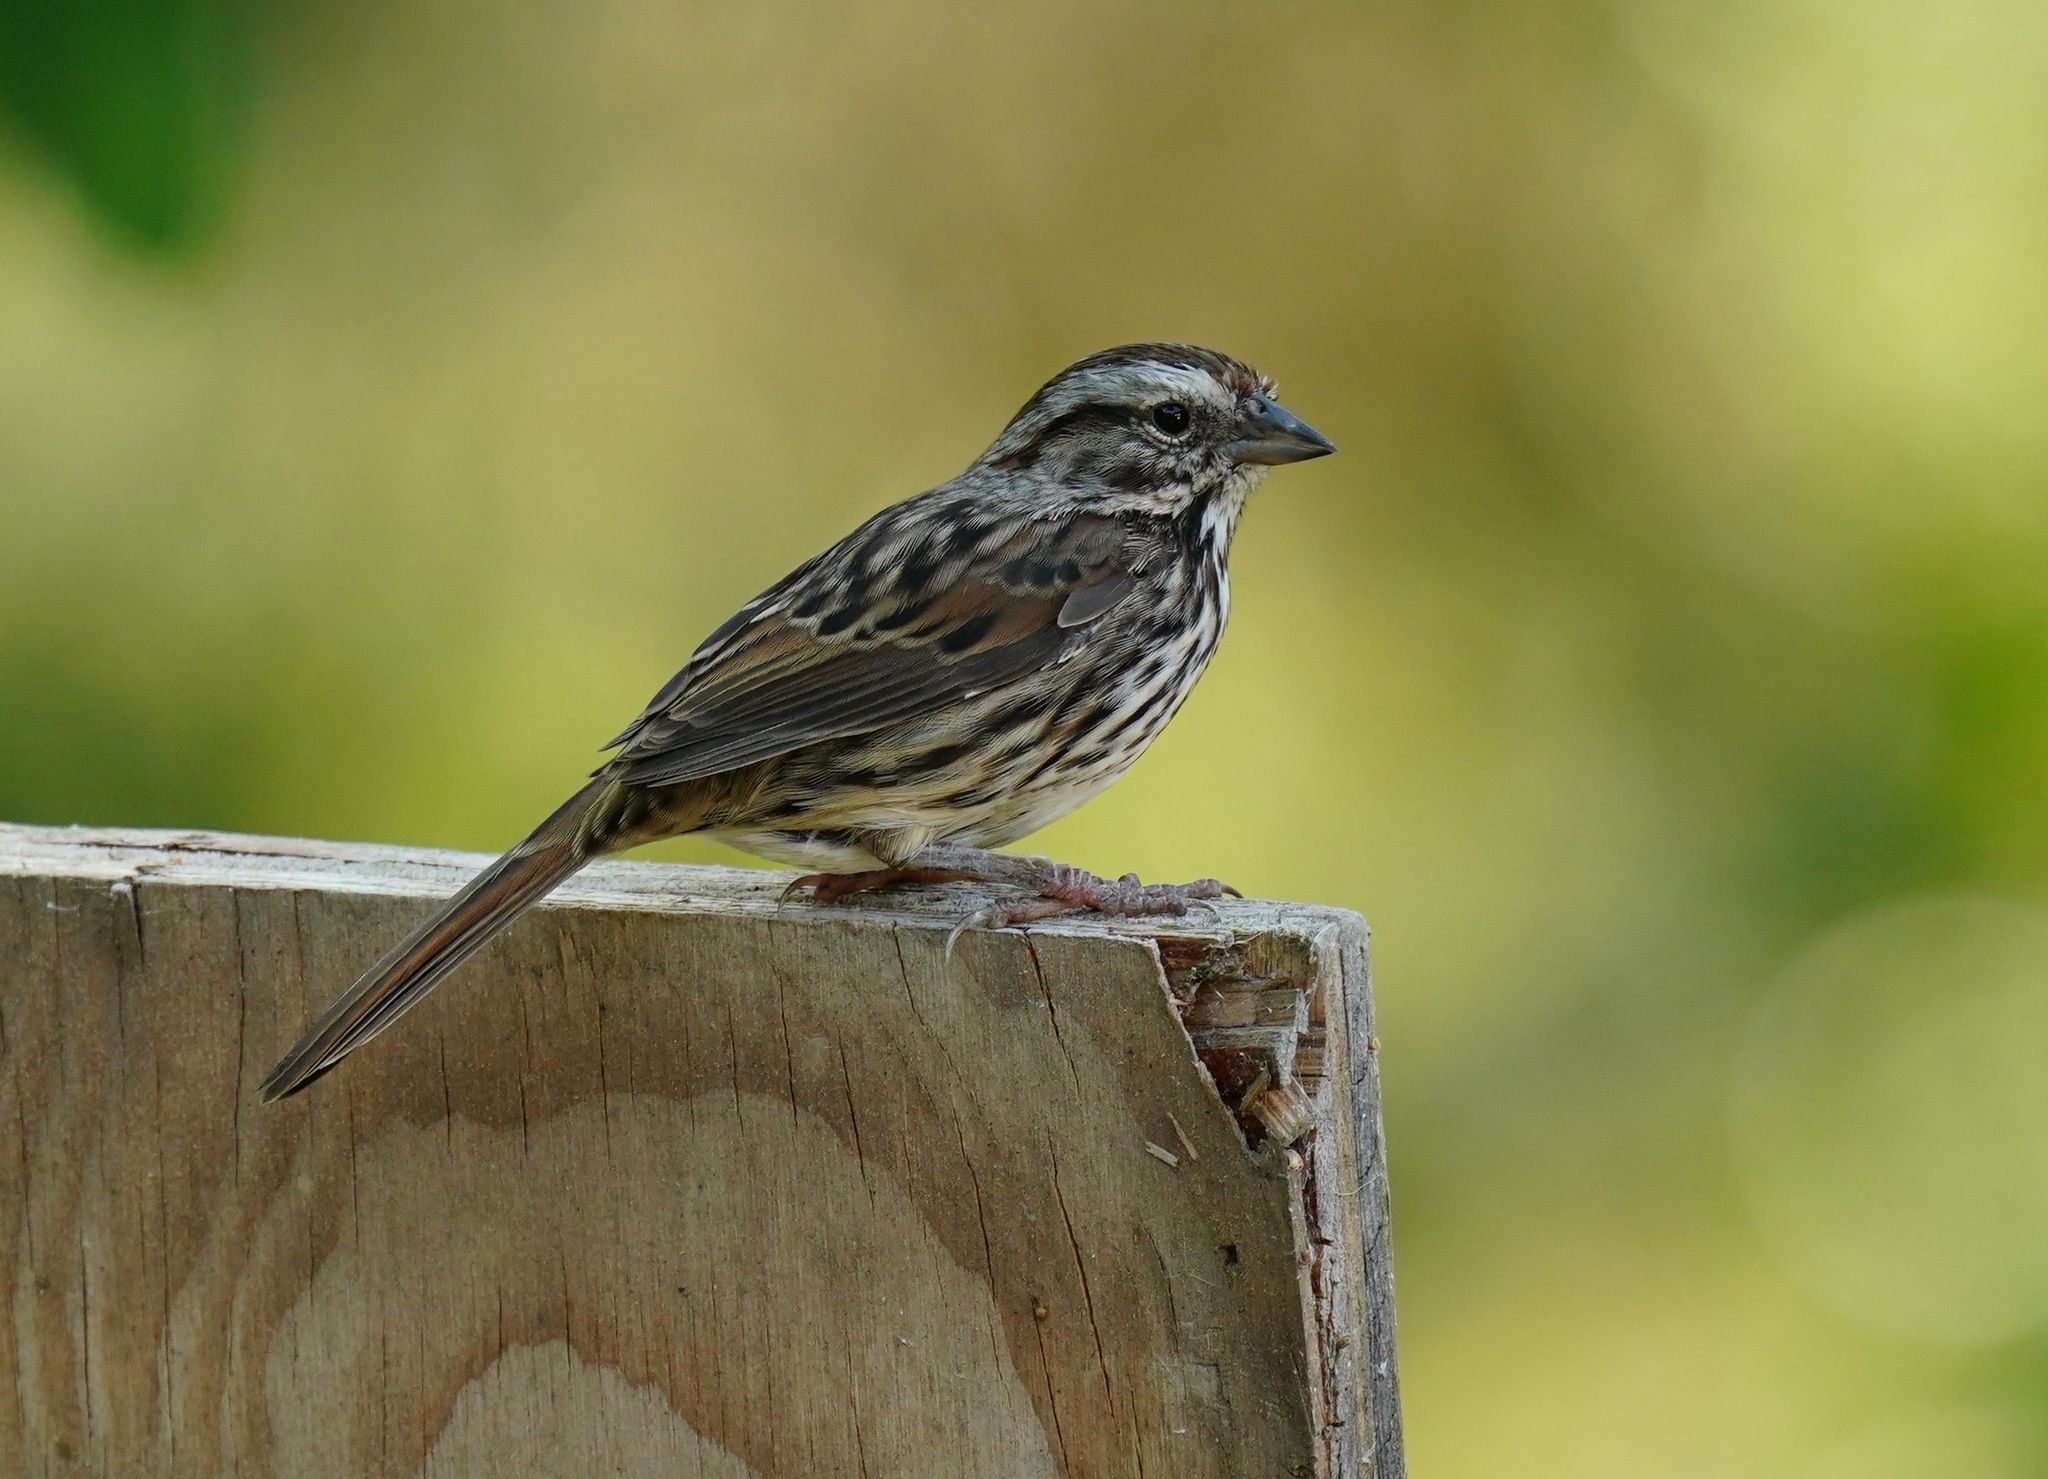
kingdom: Animalia
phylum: Chordata
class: Aves
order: Passeriformes
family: Passerellidae
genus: Melospiza
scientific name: Melospiza melodia
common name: Song sparrow
